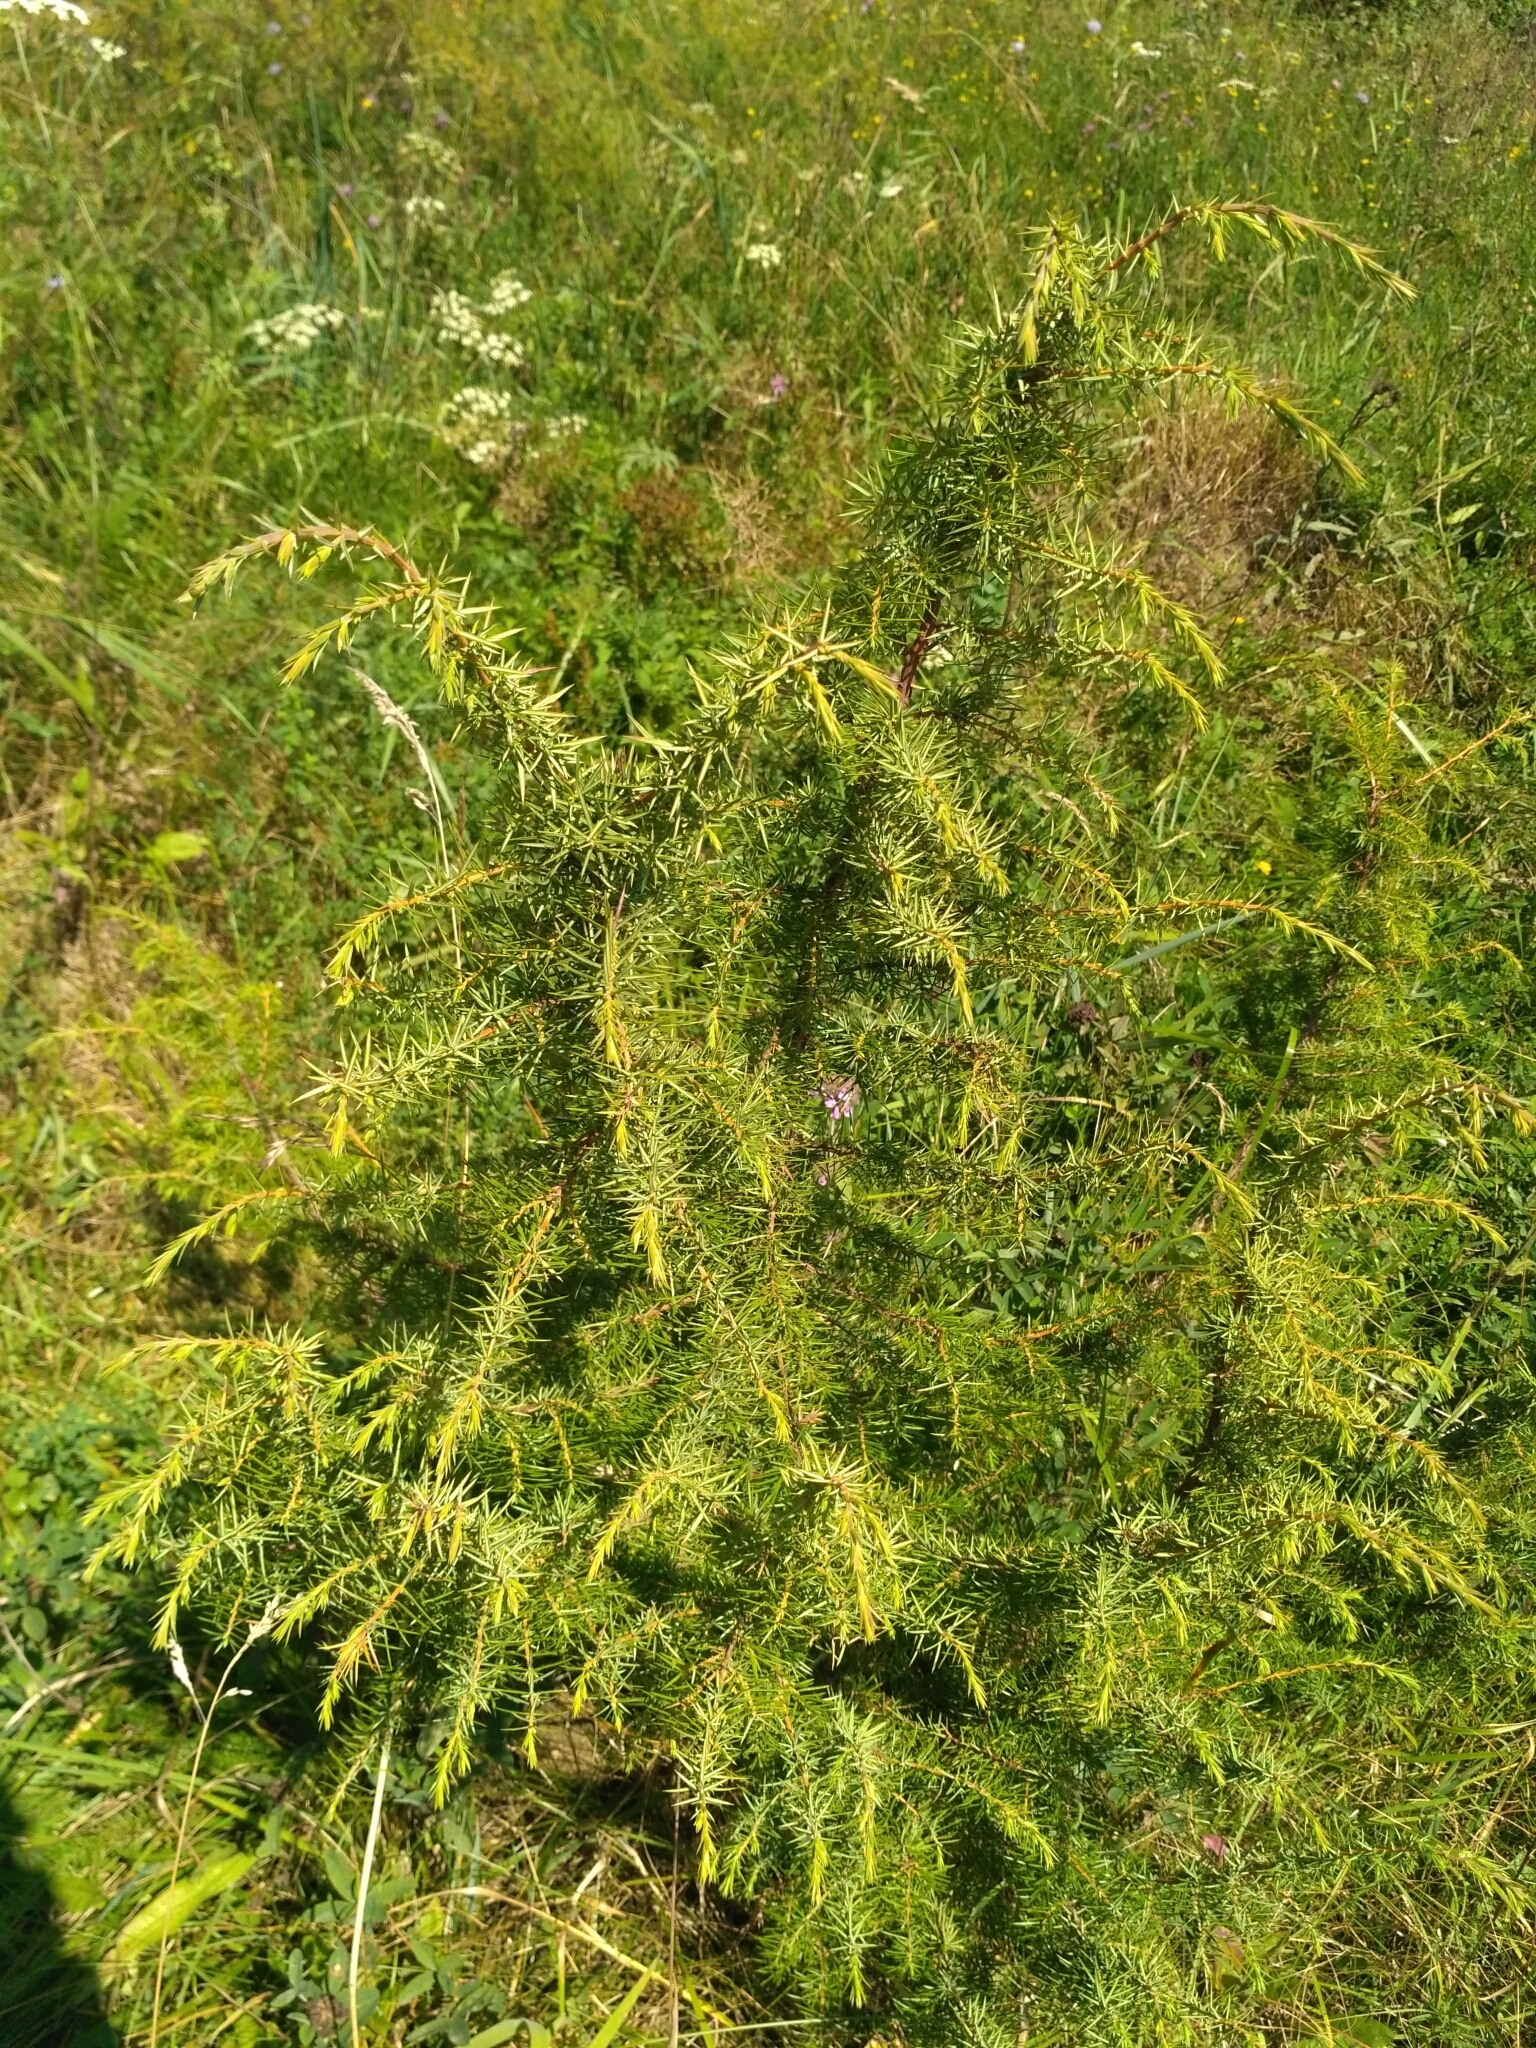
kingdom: Plantae
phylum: Tracheophyta
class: Pinopsida
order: Pinales
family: Cupressaceae
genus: Juniperus
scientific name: Juniperus communis
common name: Common juniper
